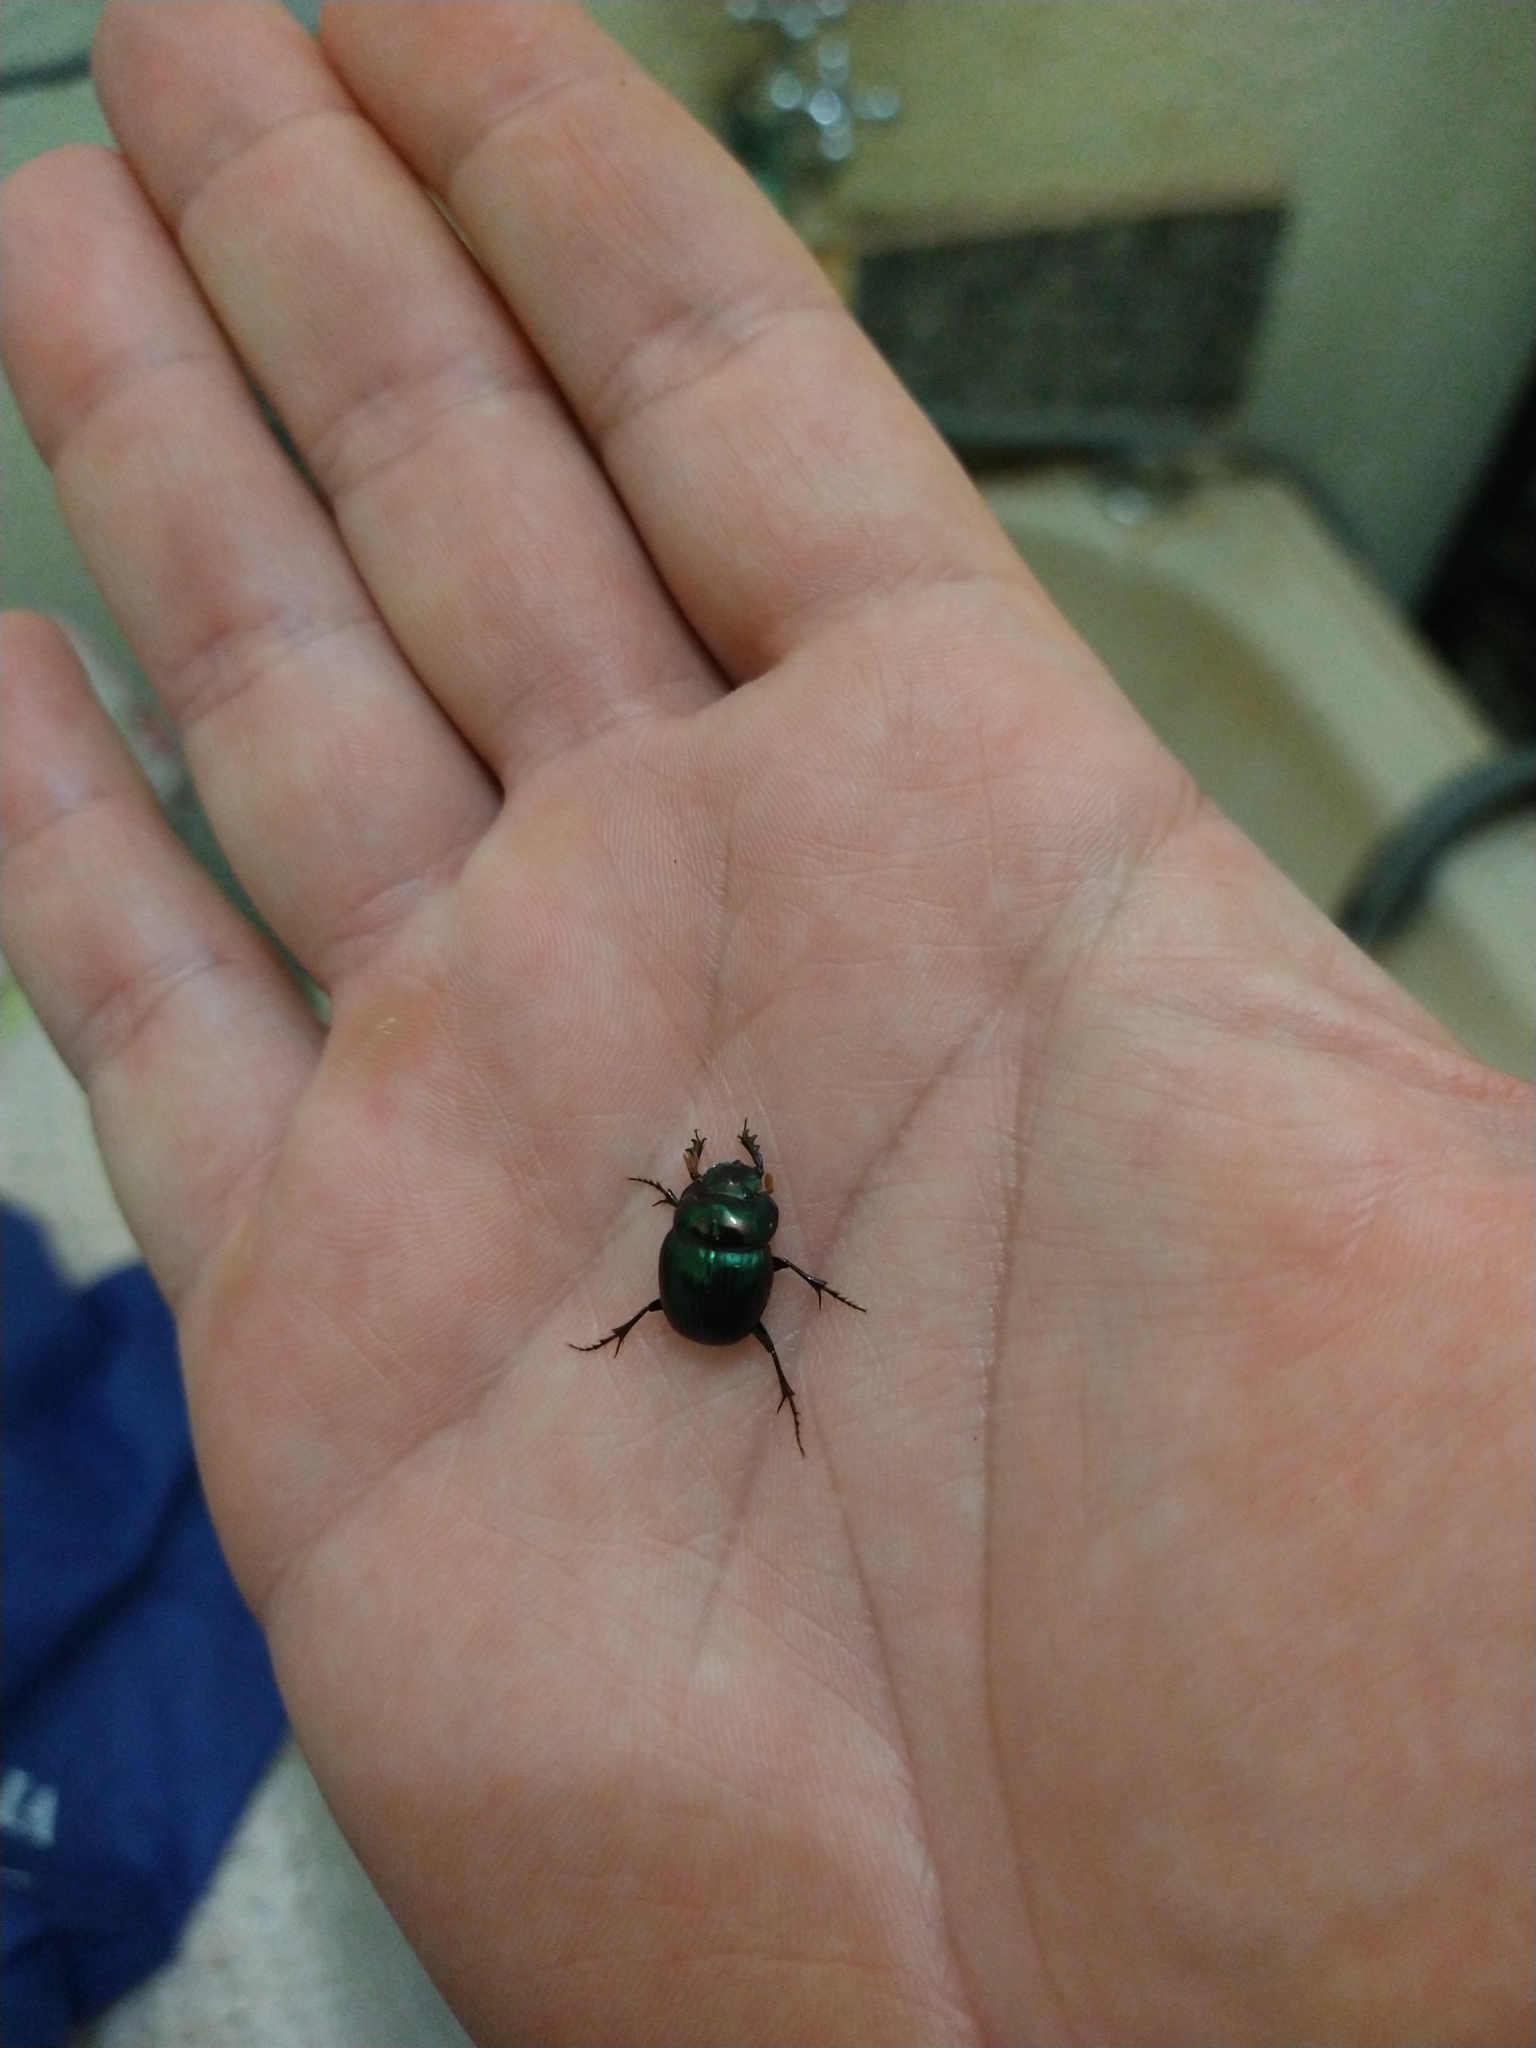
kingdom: Animalia
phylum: Arthropoda
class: Insecta
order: Coleoptera
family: Scarabaeidae
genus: Dichotomius
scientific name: Dichotomius smaragdinus
